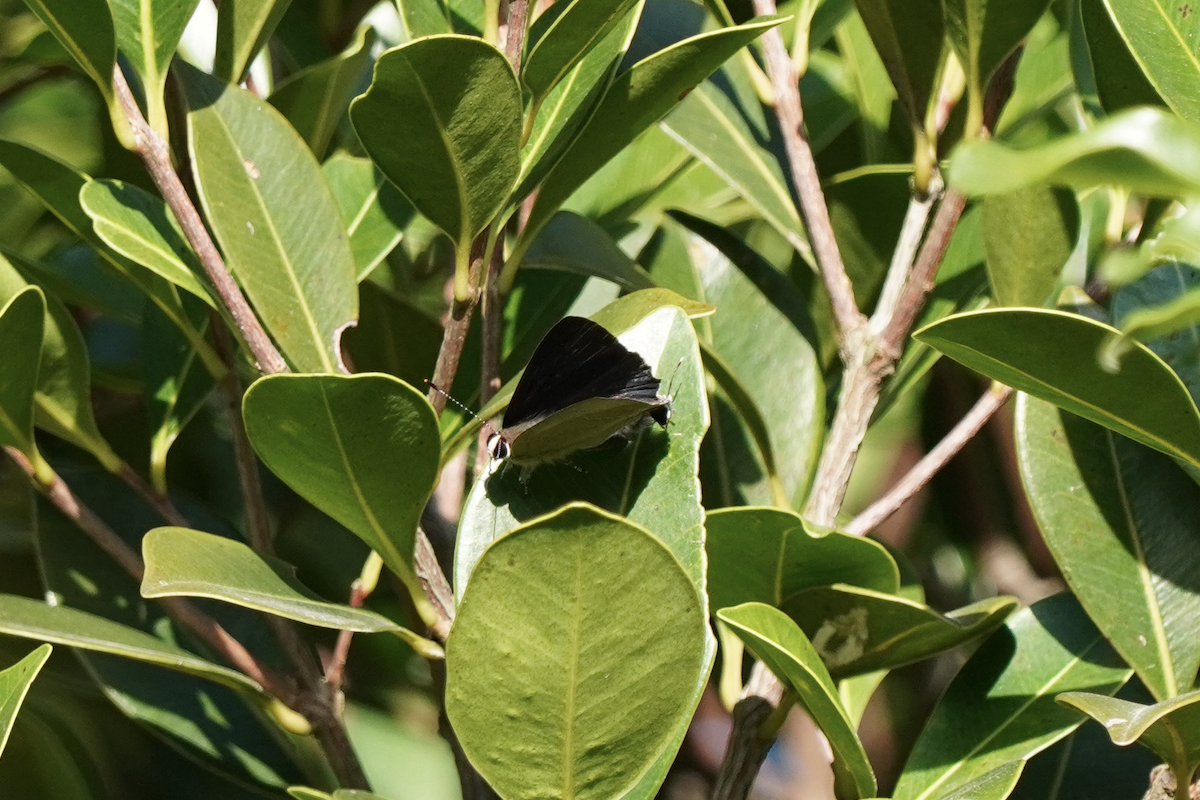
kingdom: Animalia
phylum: Arthropoda
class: Insecta
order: Lepidoptera
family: Lycaenidae
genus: Rapala
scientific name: Rapala manea
